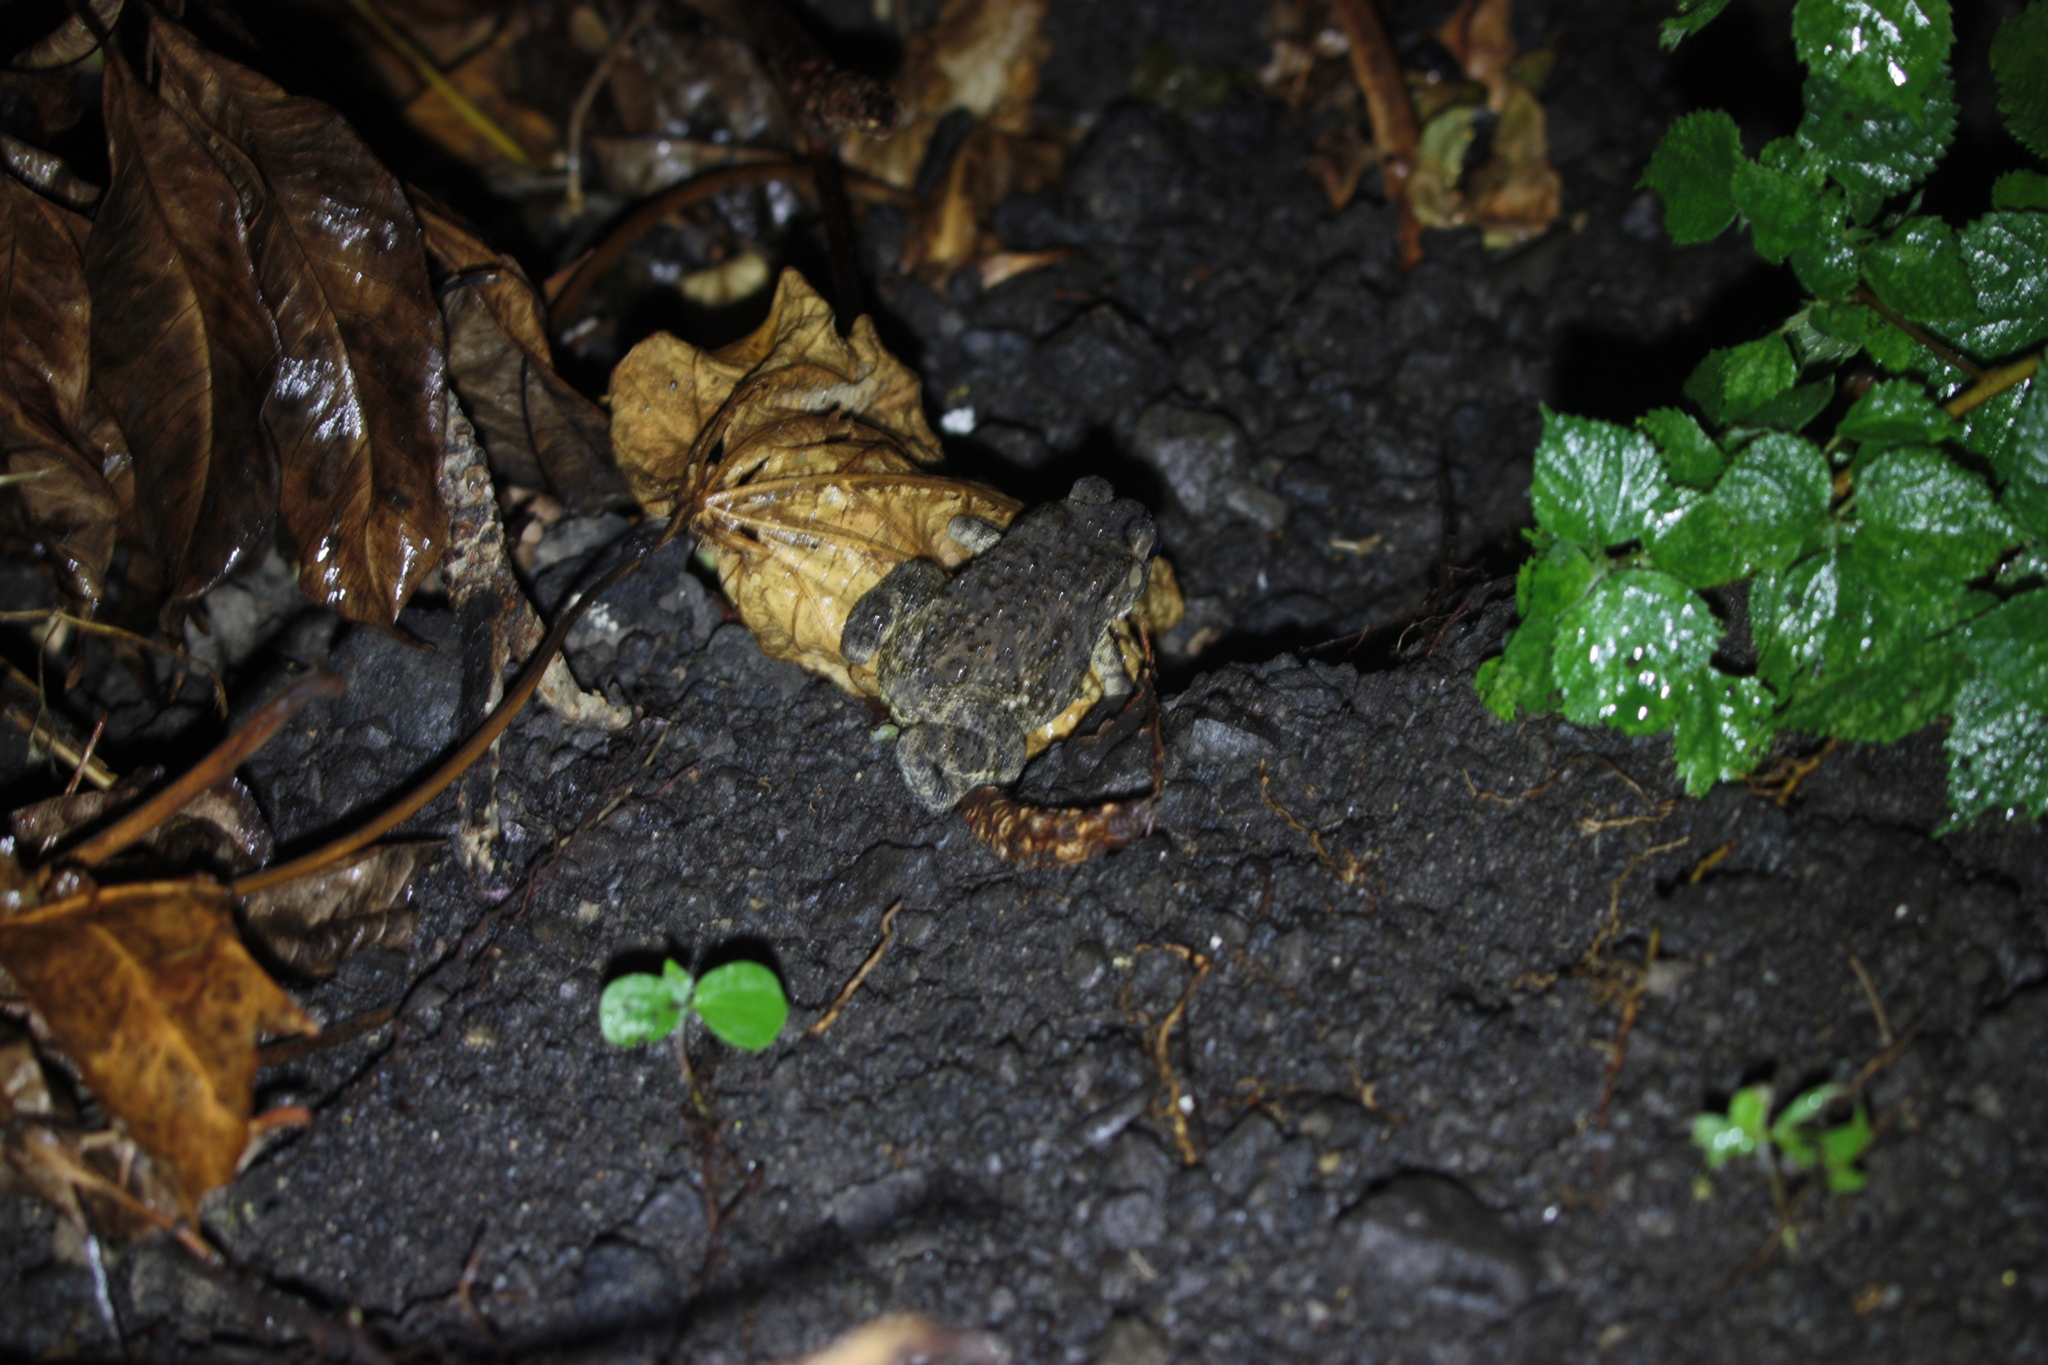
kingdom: Animalia
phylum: Chordata
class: Amphibia
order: Anura
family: Bufonidae
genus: Duttaphrynus
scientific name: Duttaphrynus melanostictus
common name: Common sunda toad
